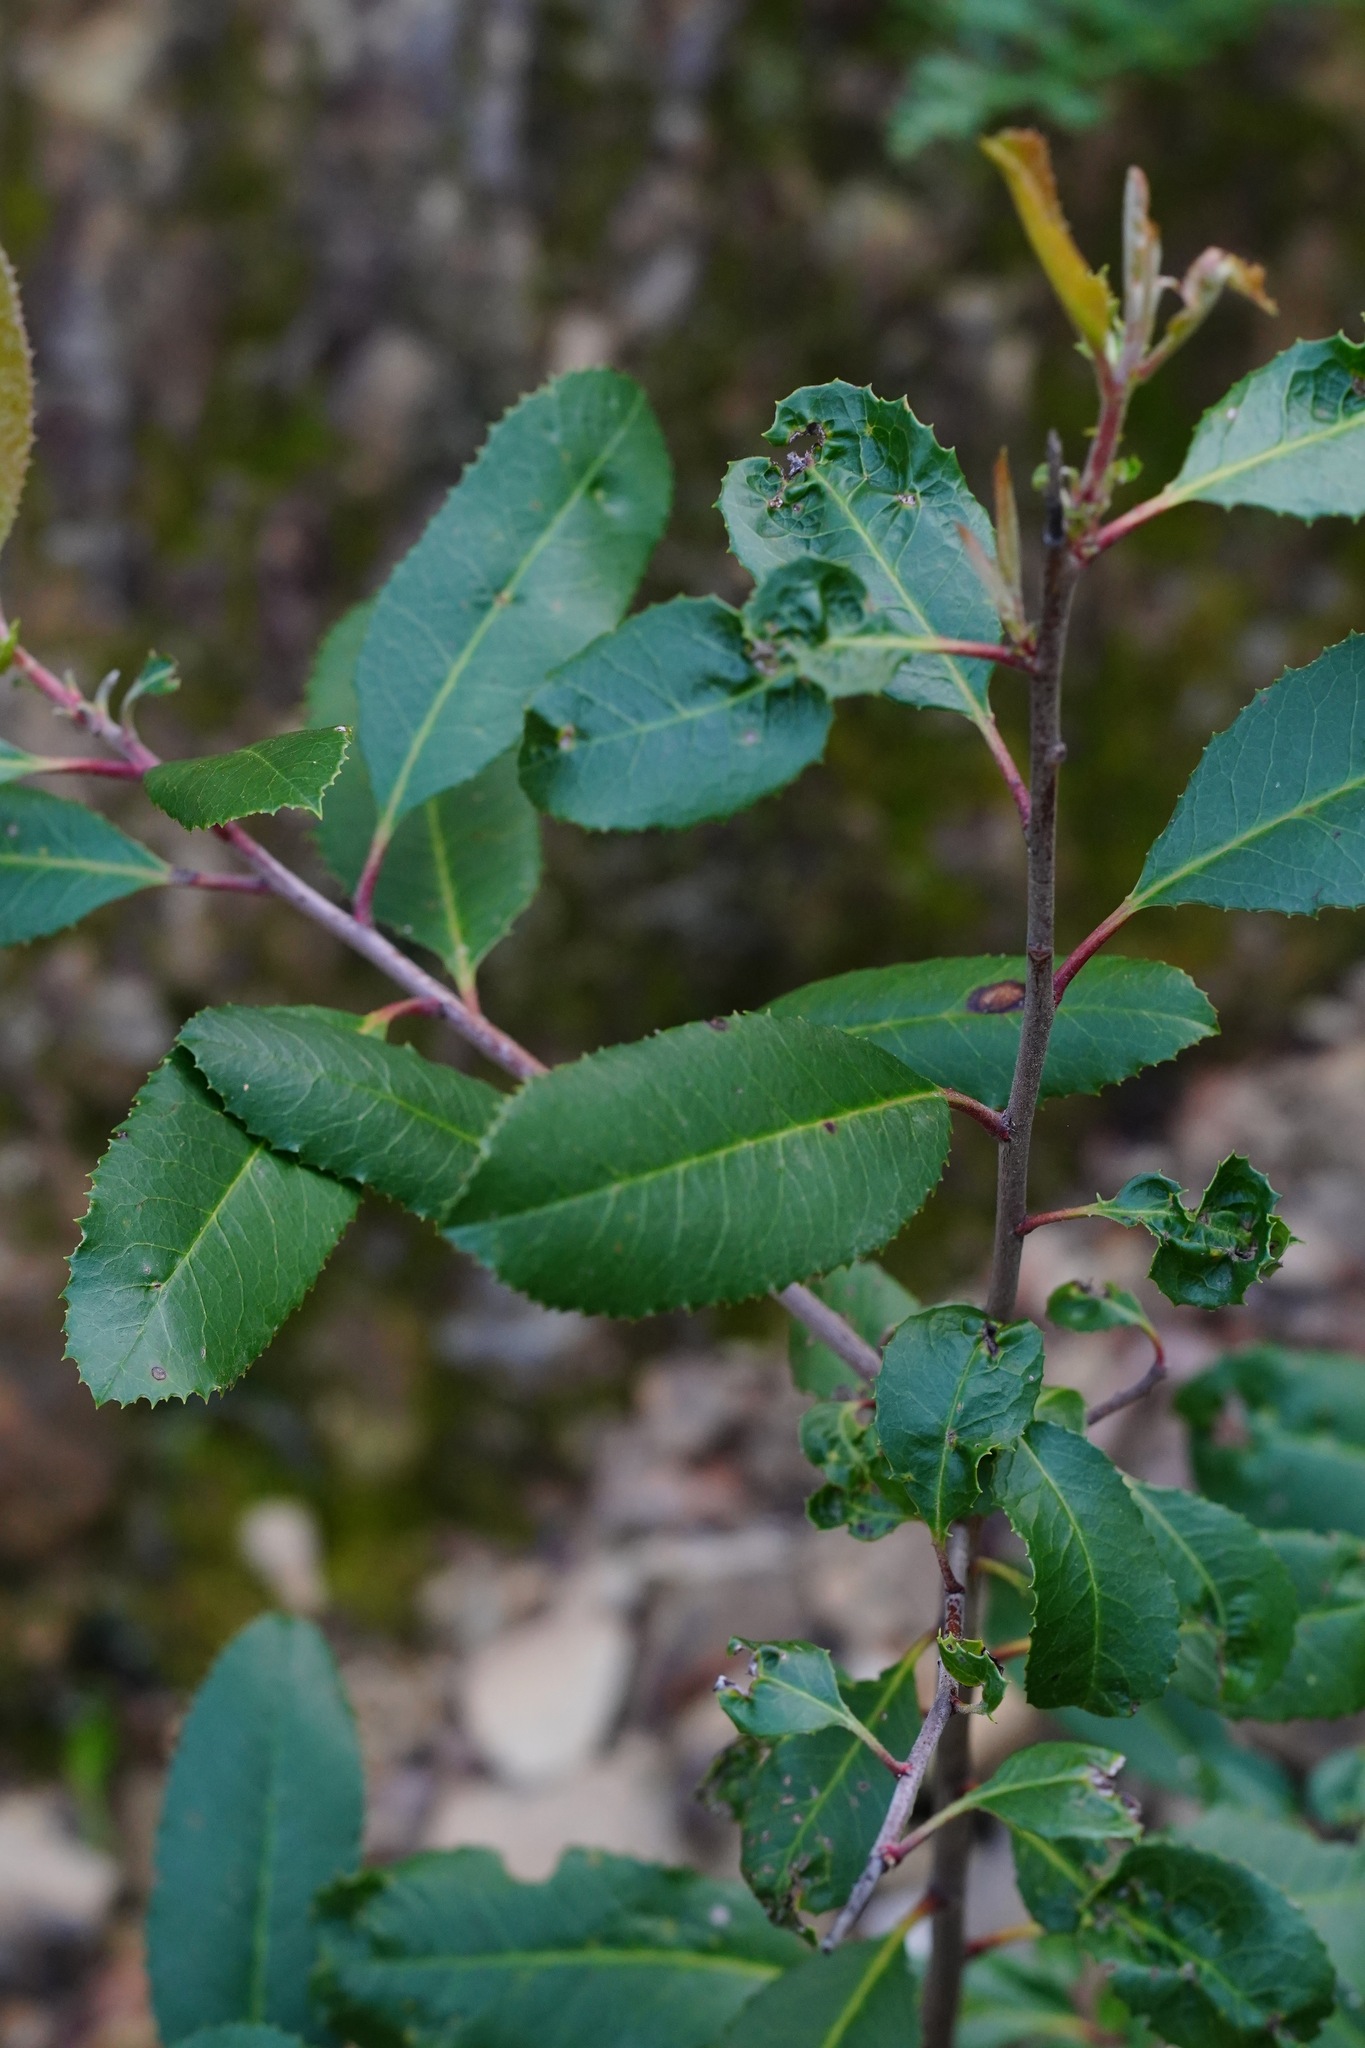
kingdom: Plantae
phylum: Tracheophyta
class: Magnoliopsida
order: Rosales
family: Rosaceae
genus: Heteromeles
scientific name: Heteromeles arbutifolia
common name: California-holly
